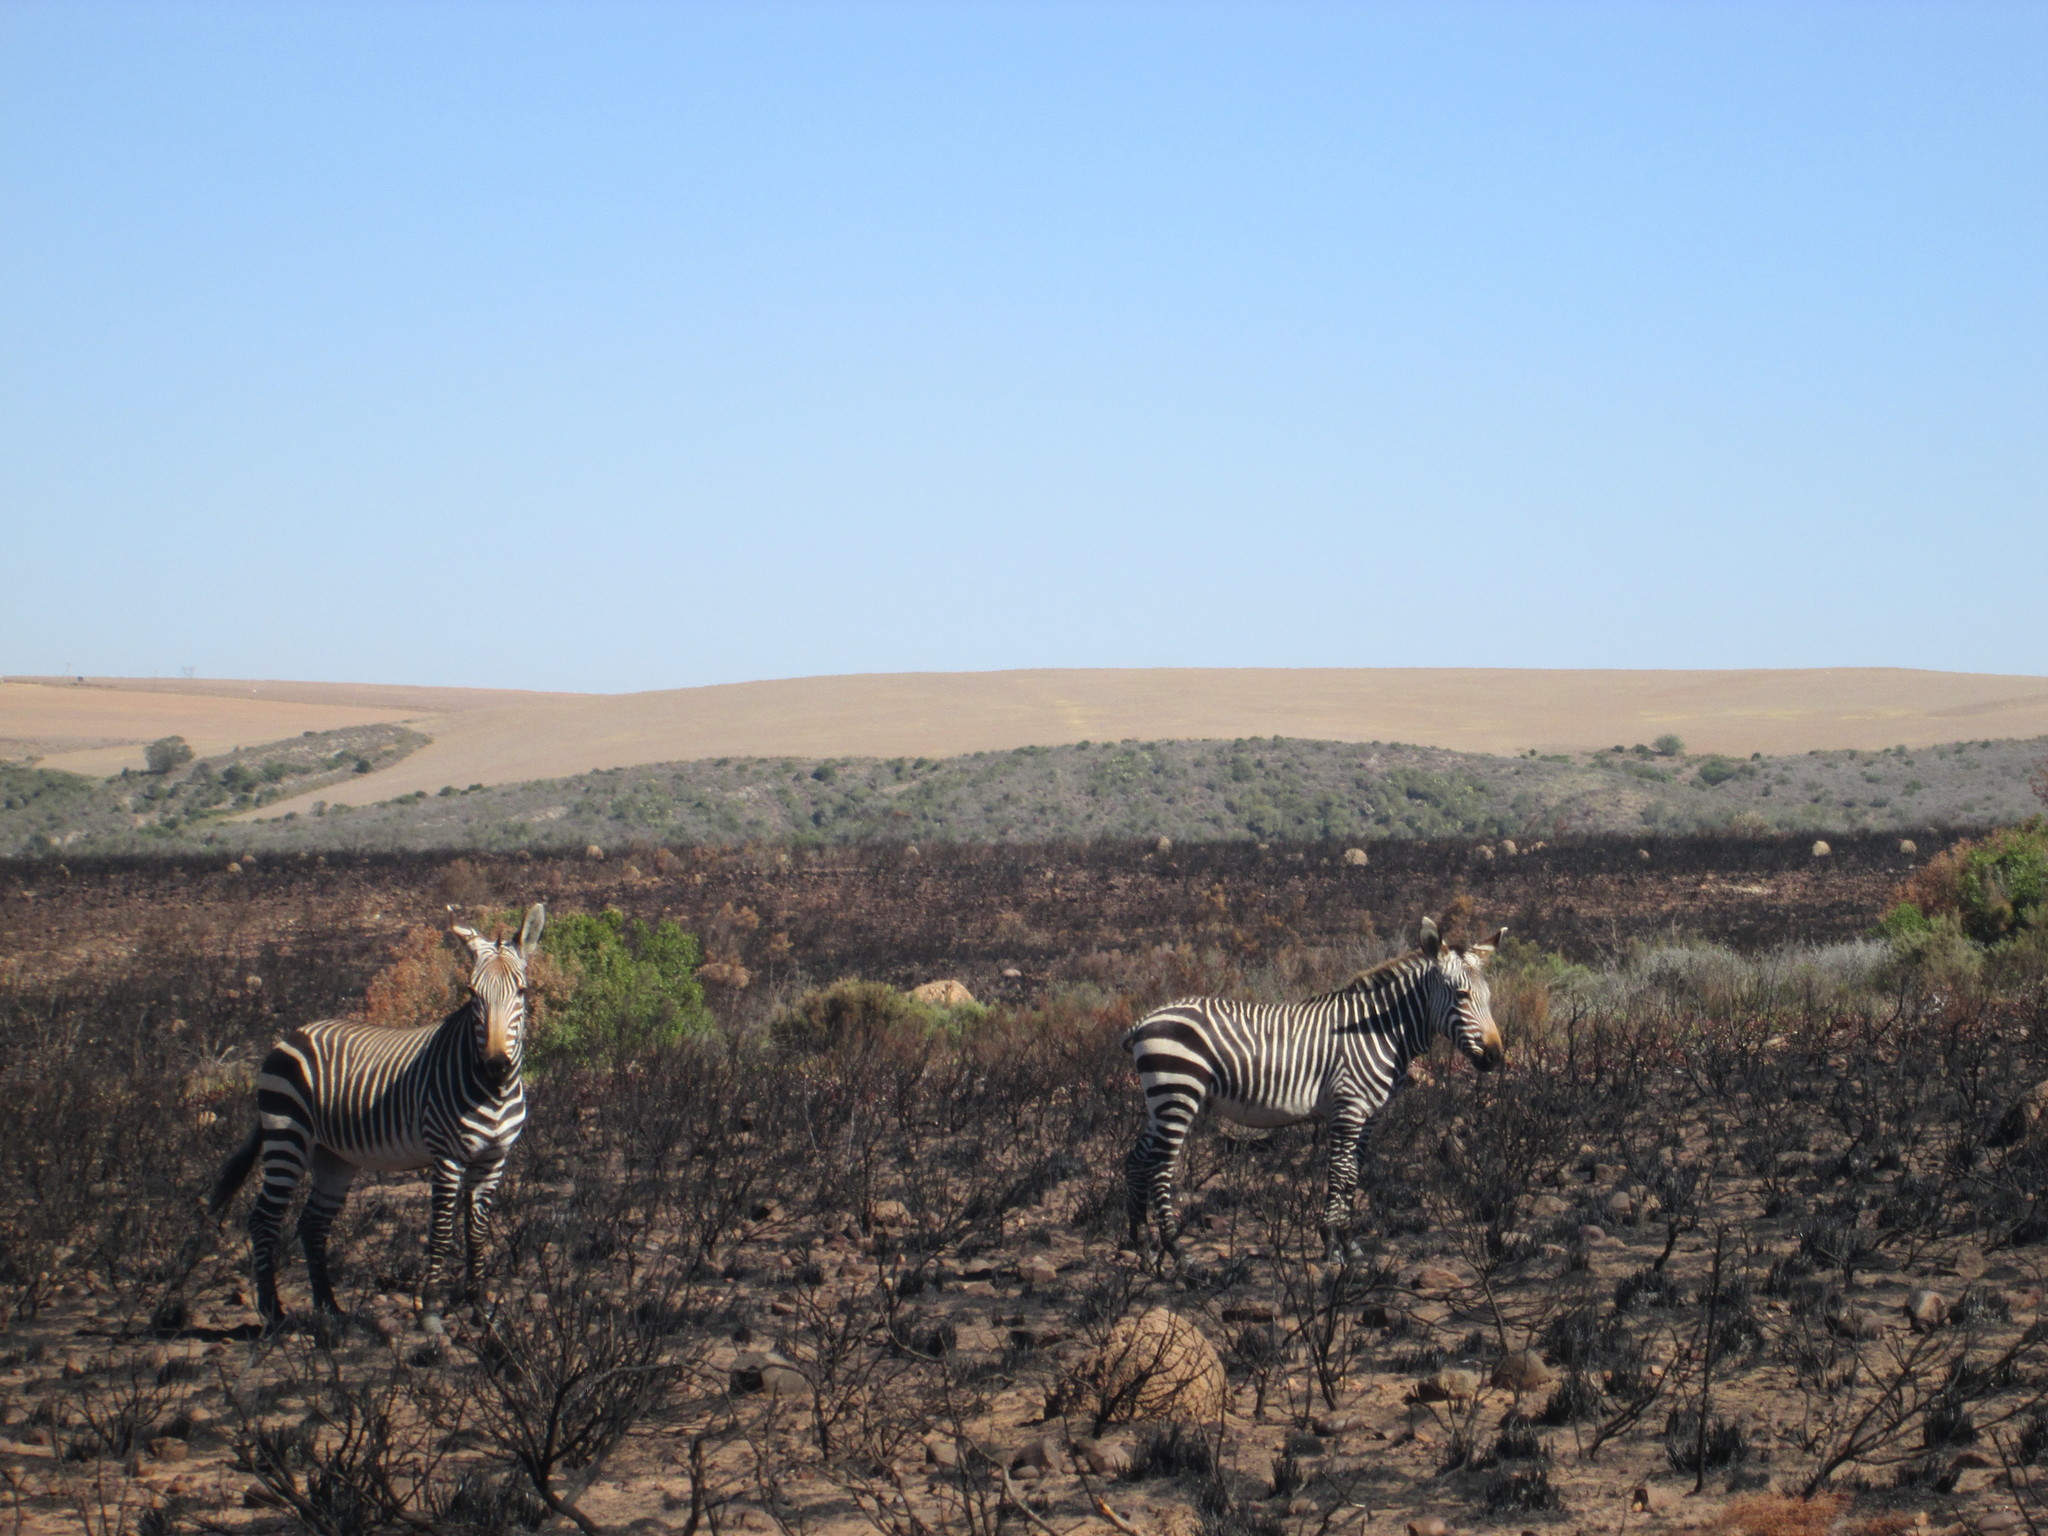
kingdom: Animalia
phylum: Chordata
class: Mammalia
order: Perissodactyla
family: Equidae
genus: Equus
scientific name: Equus zebra
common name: Mountain zebra
